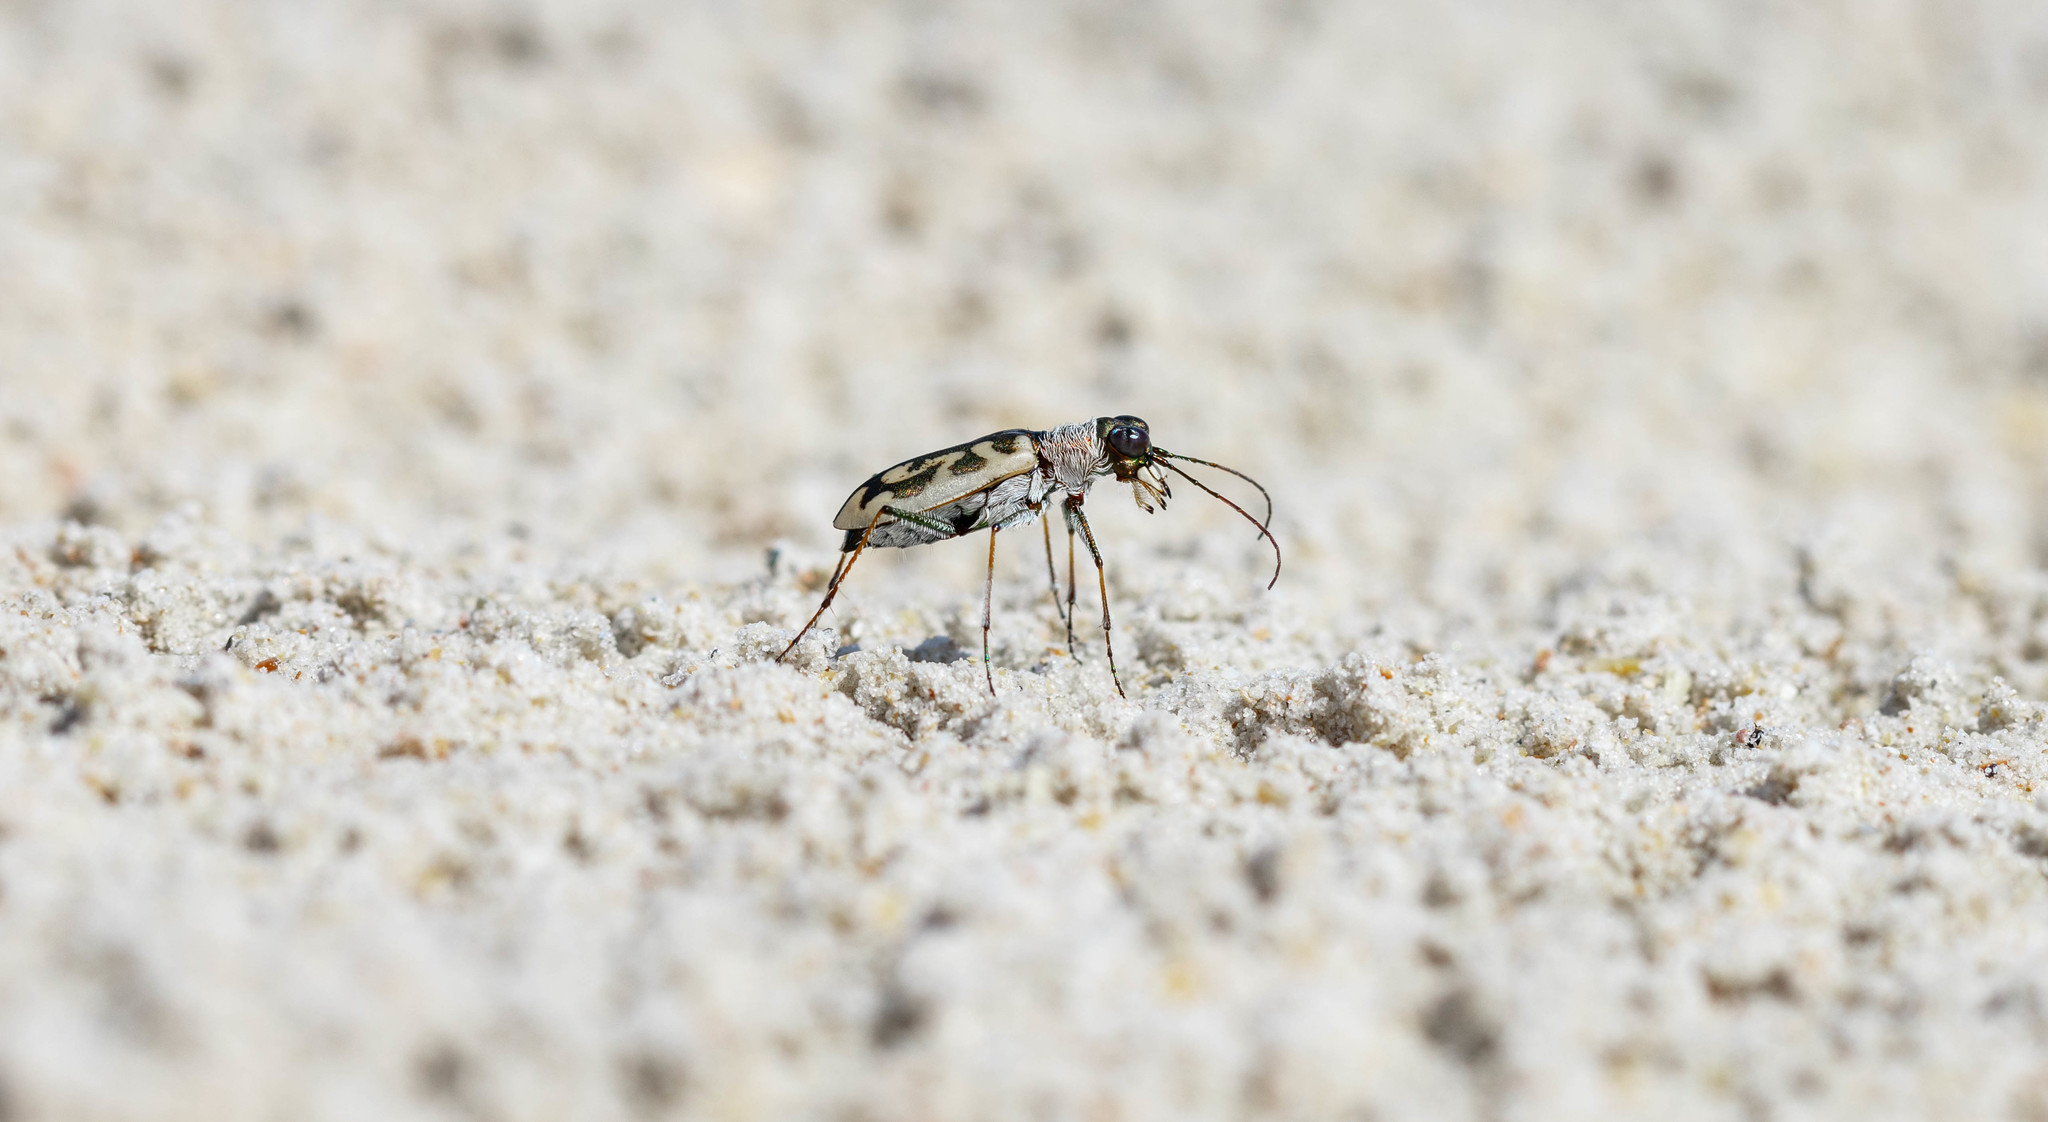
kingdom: Animalia
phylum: Arthropoda
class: Insecta
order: Coleoptera
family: Carabidae
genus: Cephalota
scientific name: Cephalota elegans
